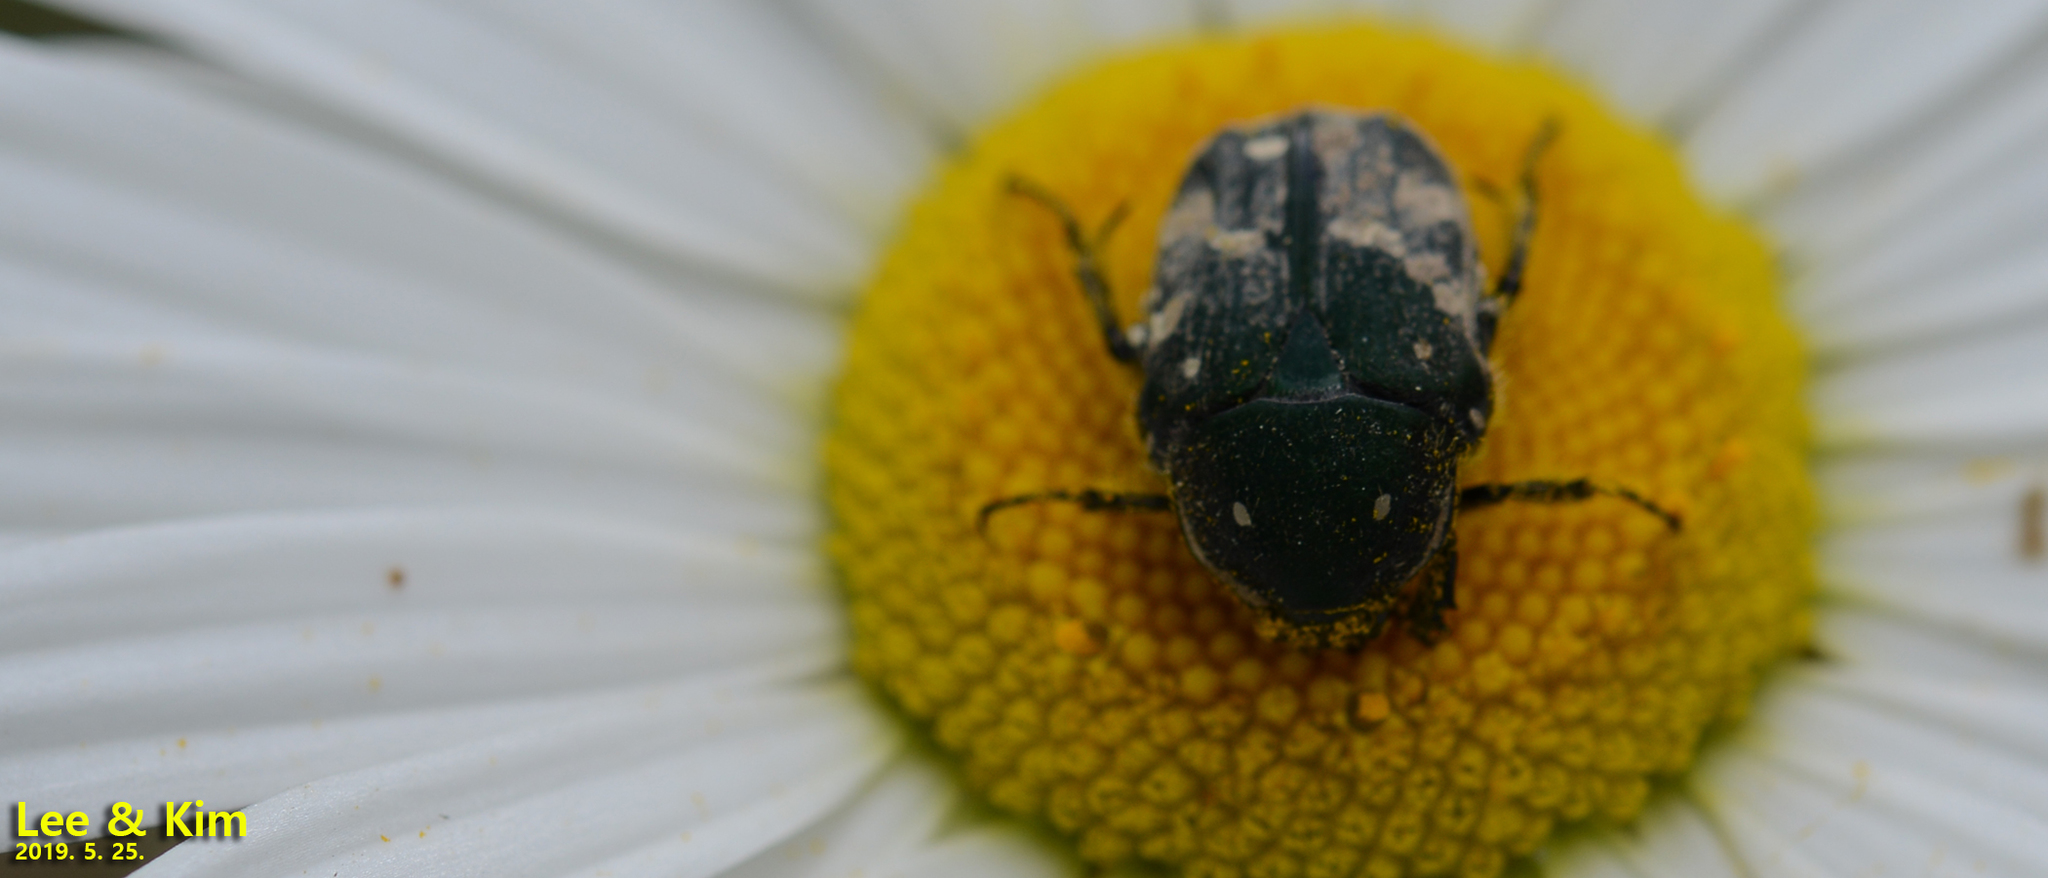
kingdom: Animalia
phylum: Arthropoda
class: Insecta
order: Coleoptera
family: Scarabaeidae
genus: Gametis
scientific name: Gametis jucunda
